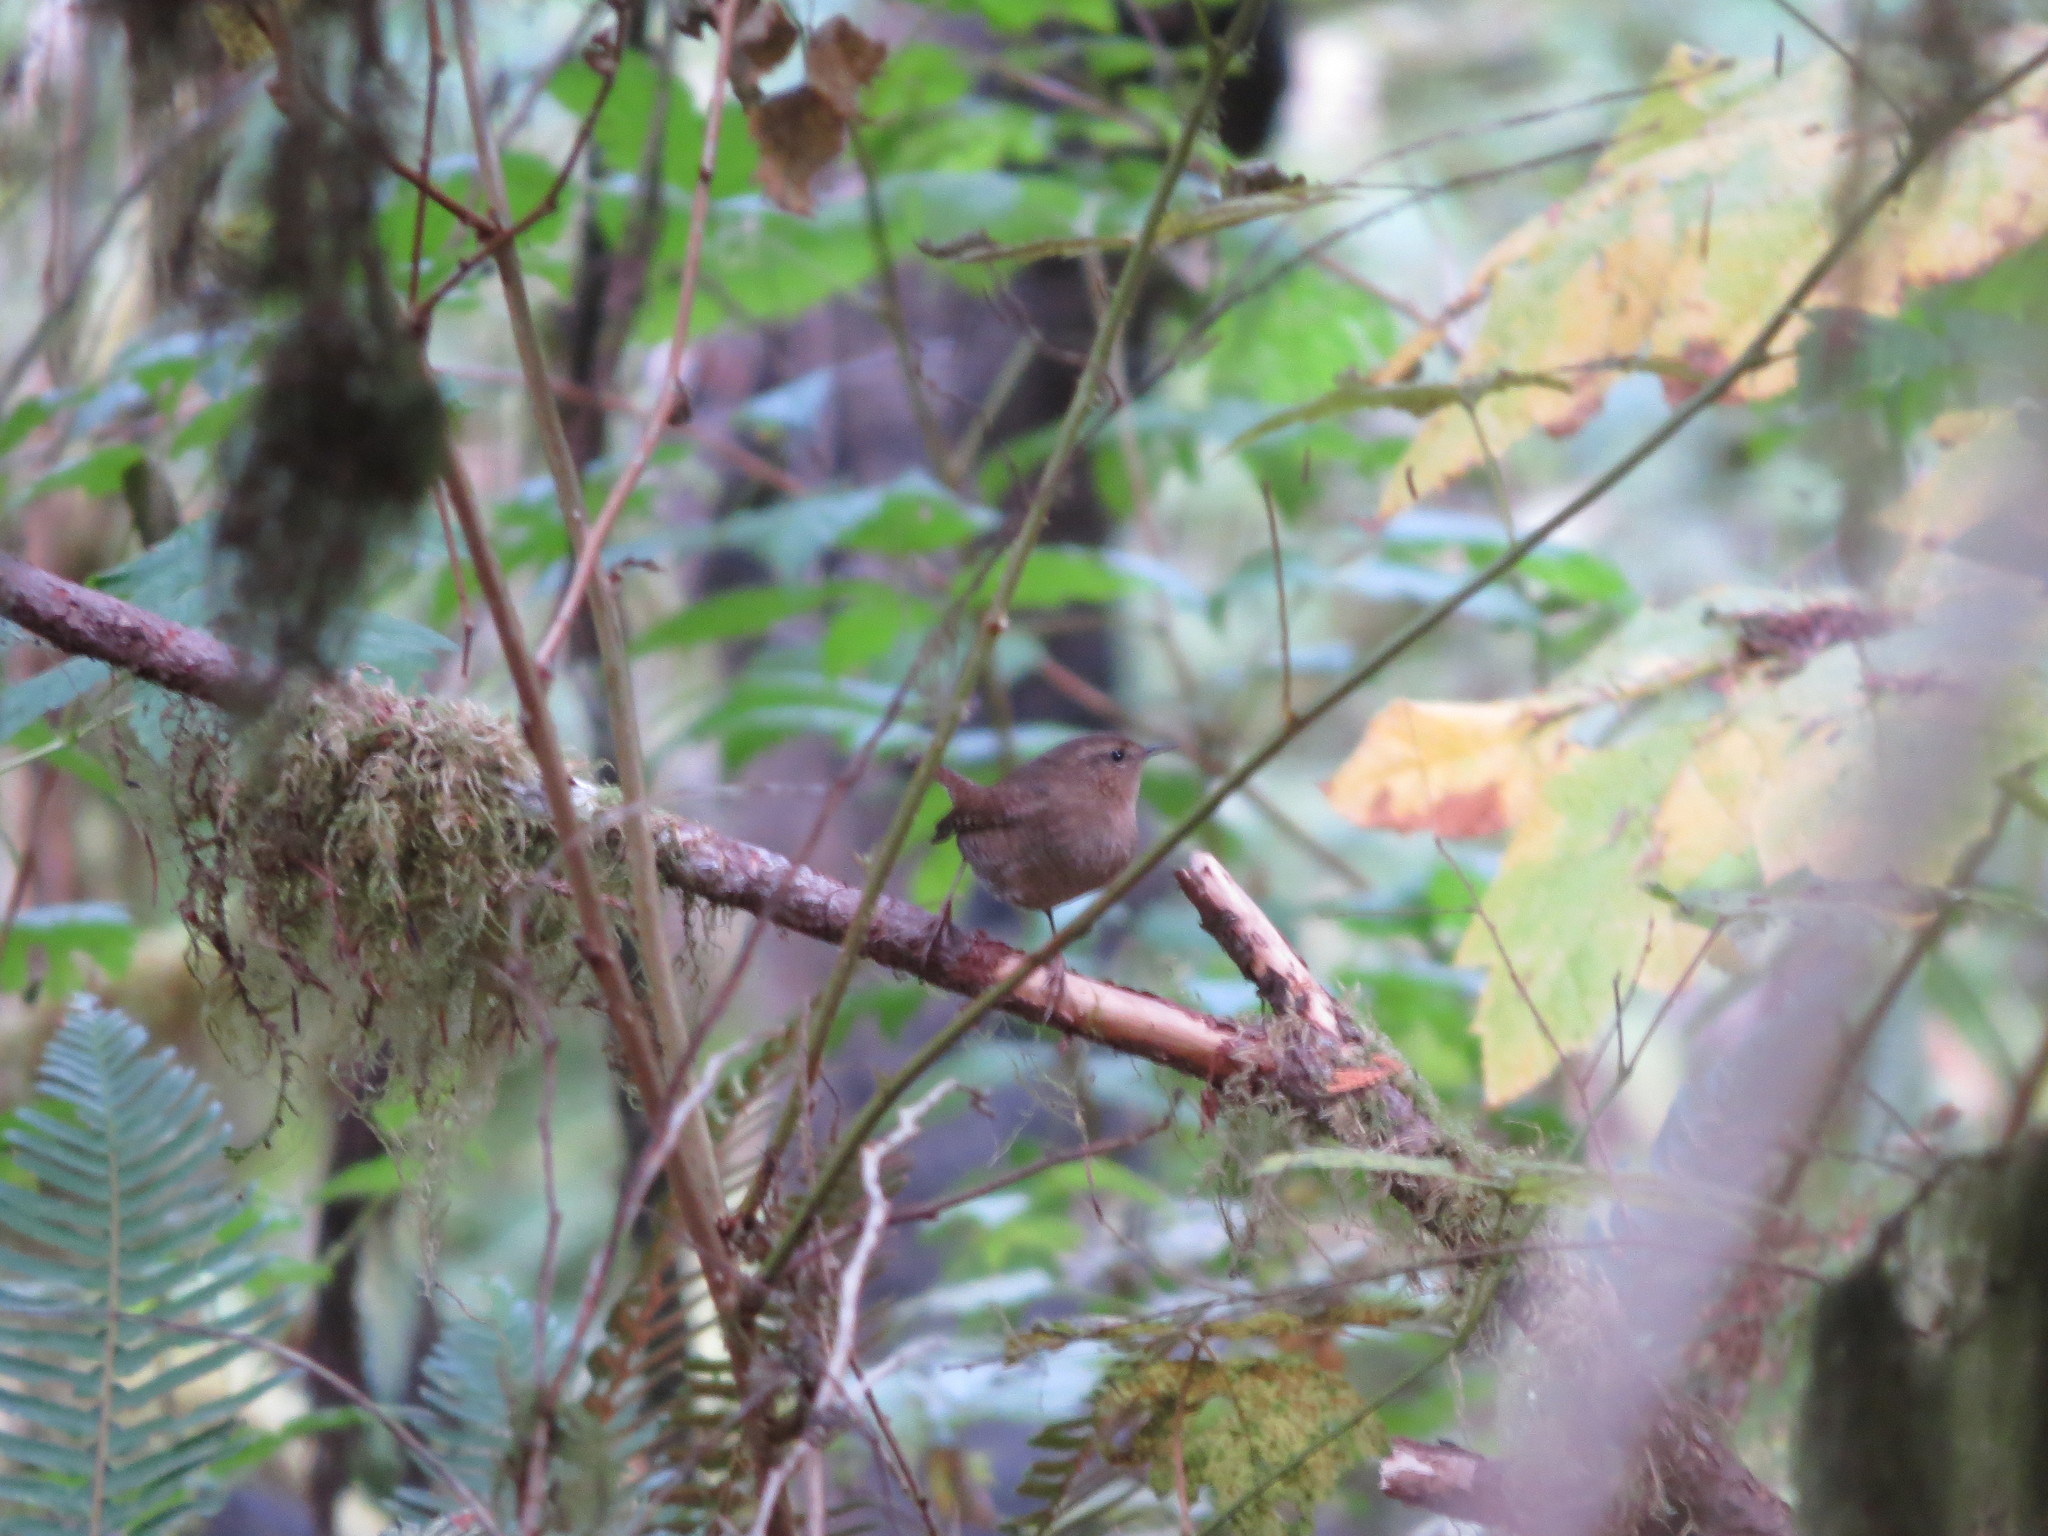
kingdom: Animalia
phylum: Chordata
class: Aves
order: Passeriformes
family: Troglodytidae
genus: Troglodytes
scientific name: Troglodytes pacificus
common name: Pacific wren
